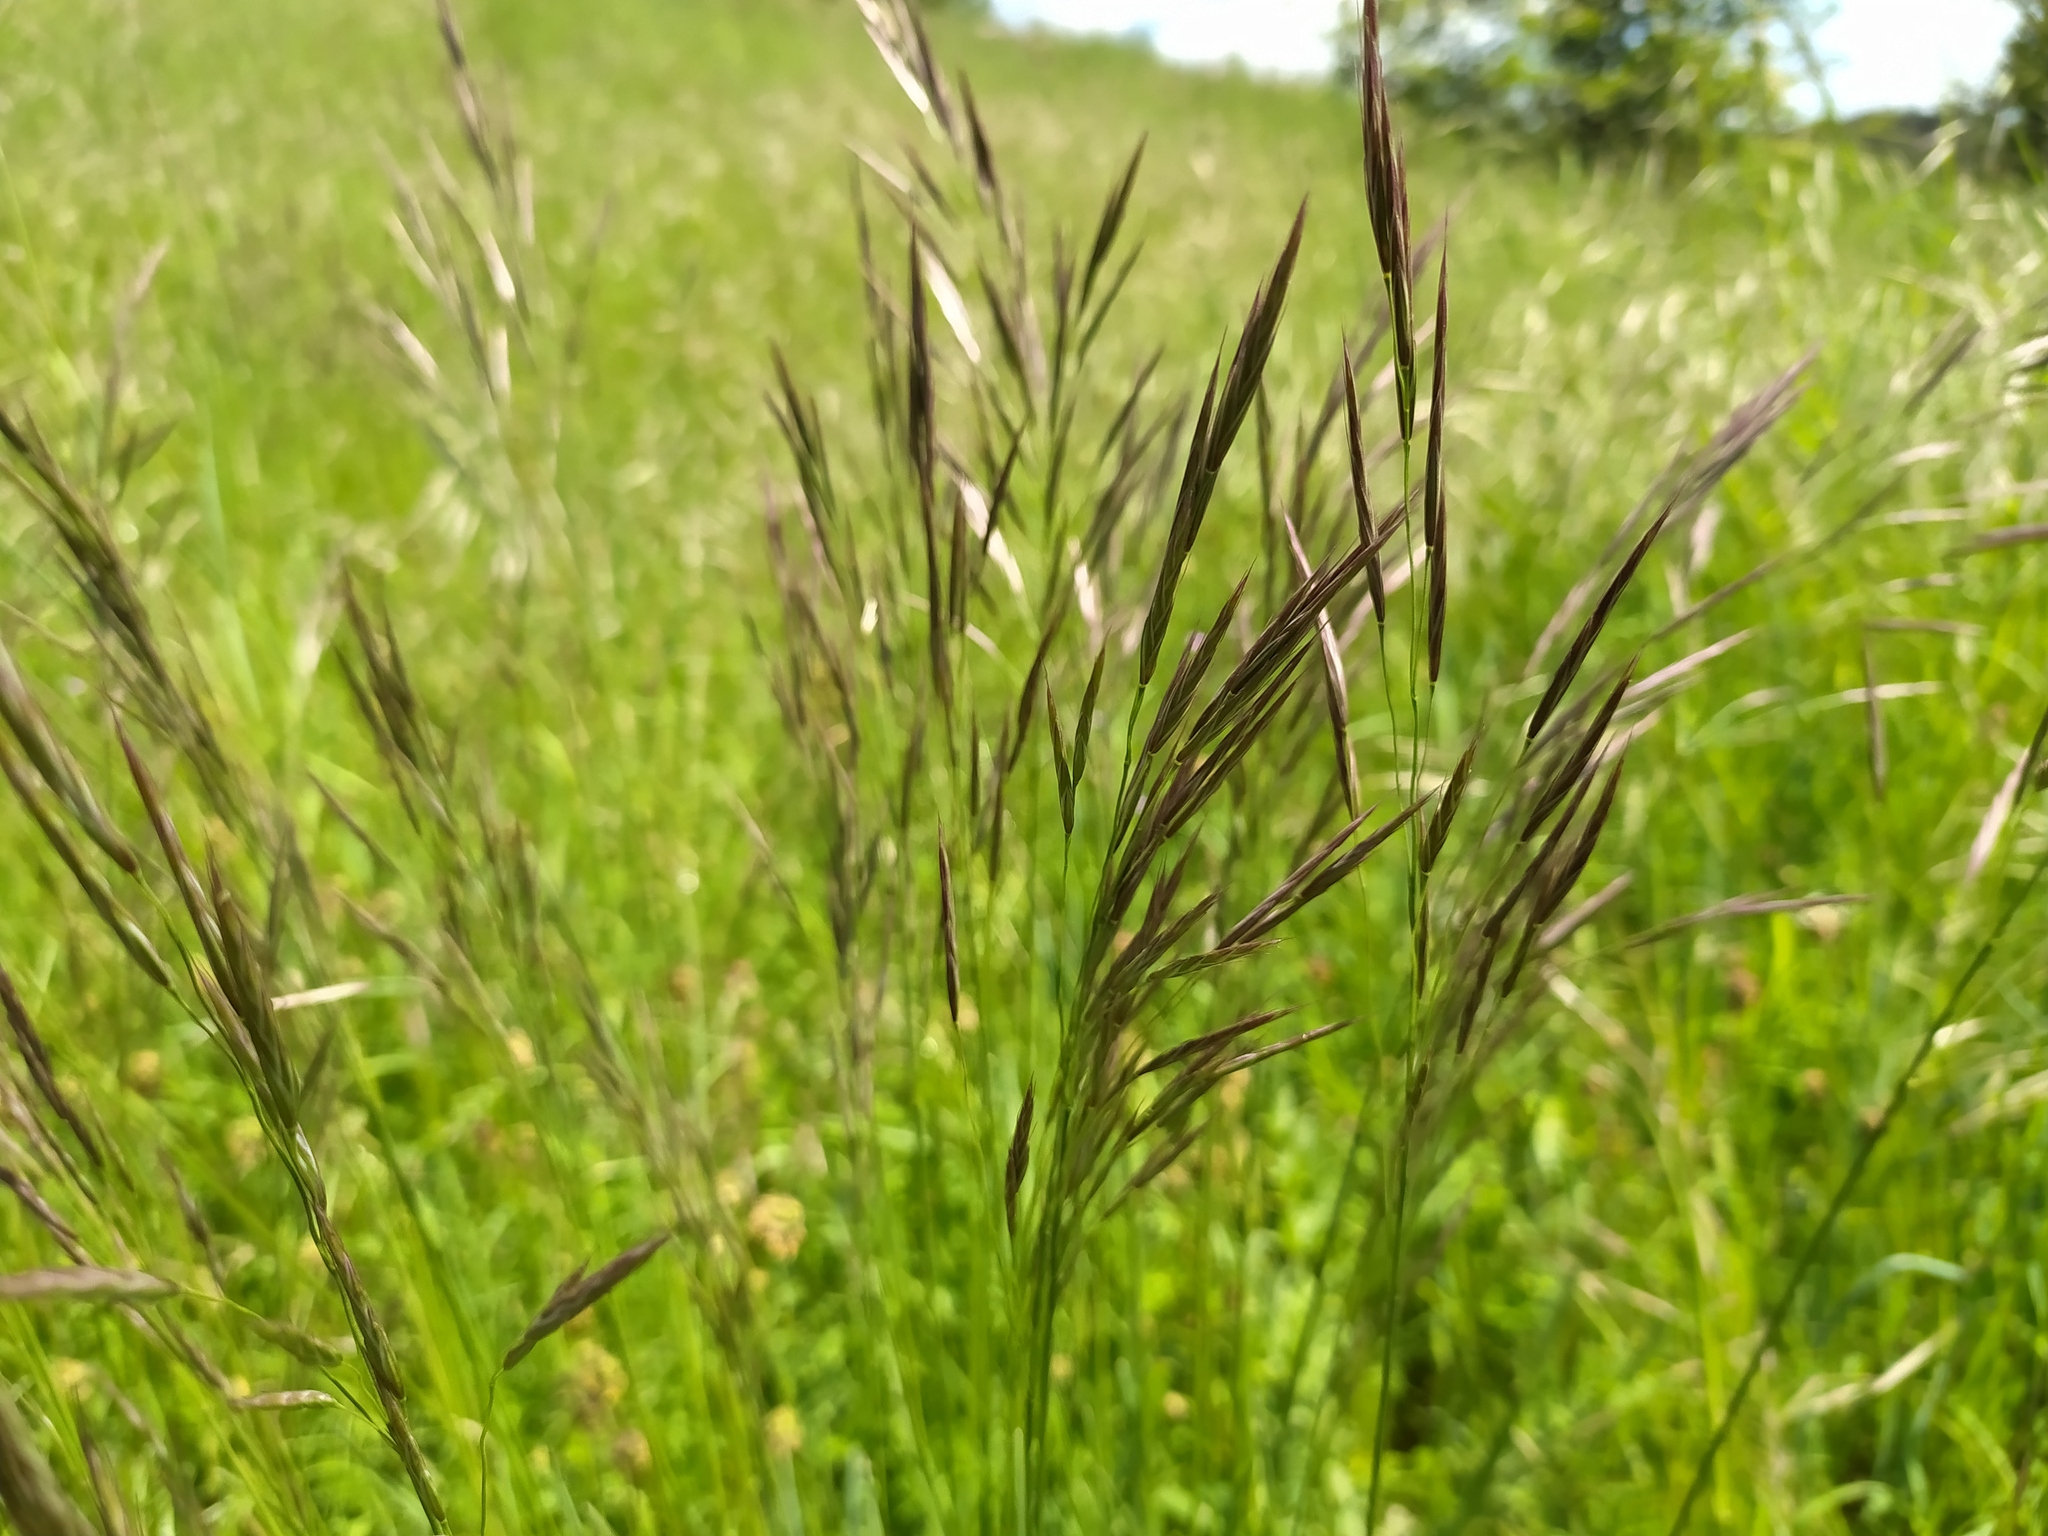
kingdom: Plantae
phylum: Tracheophyta
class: Liliopsida
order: Poales
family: Poaceae
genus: Bromus
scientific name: Bromus erectus
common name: Erect brome
